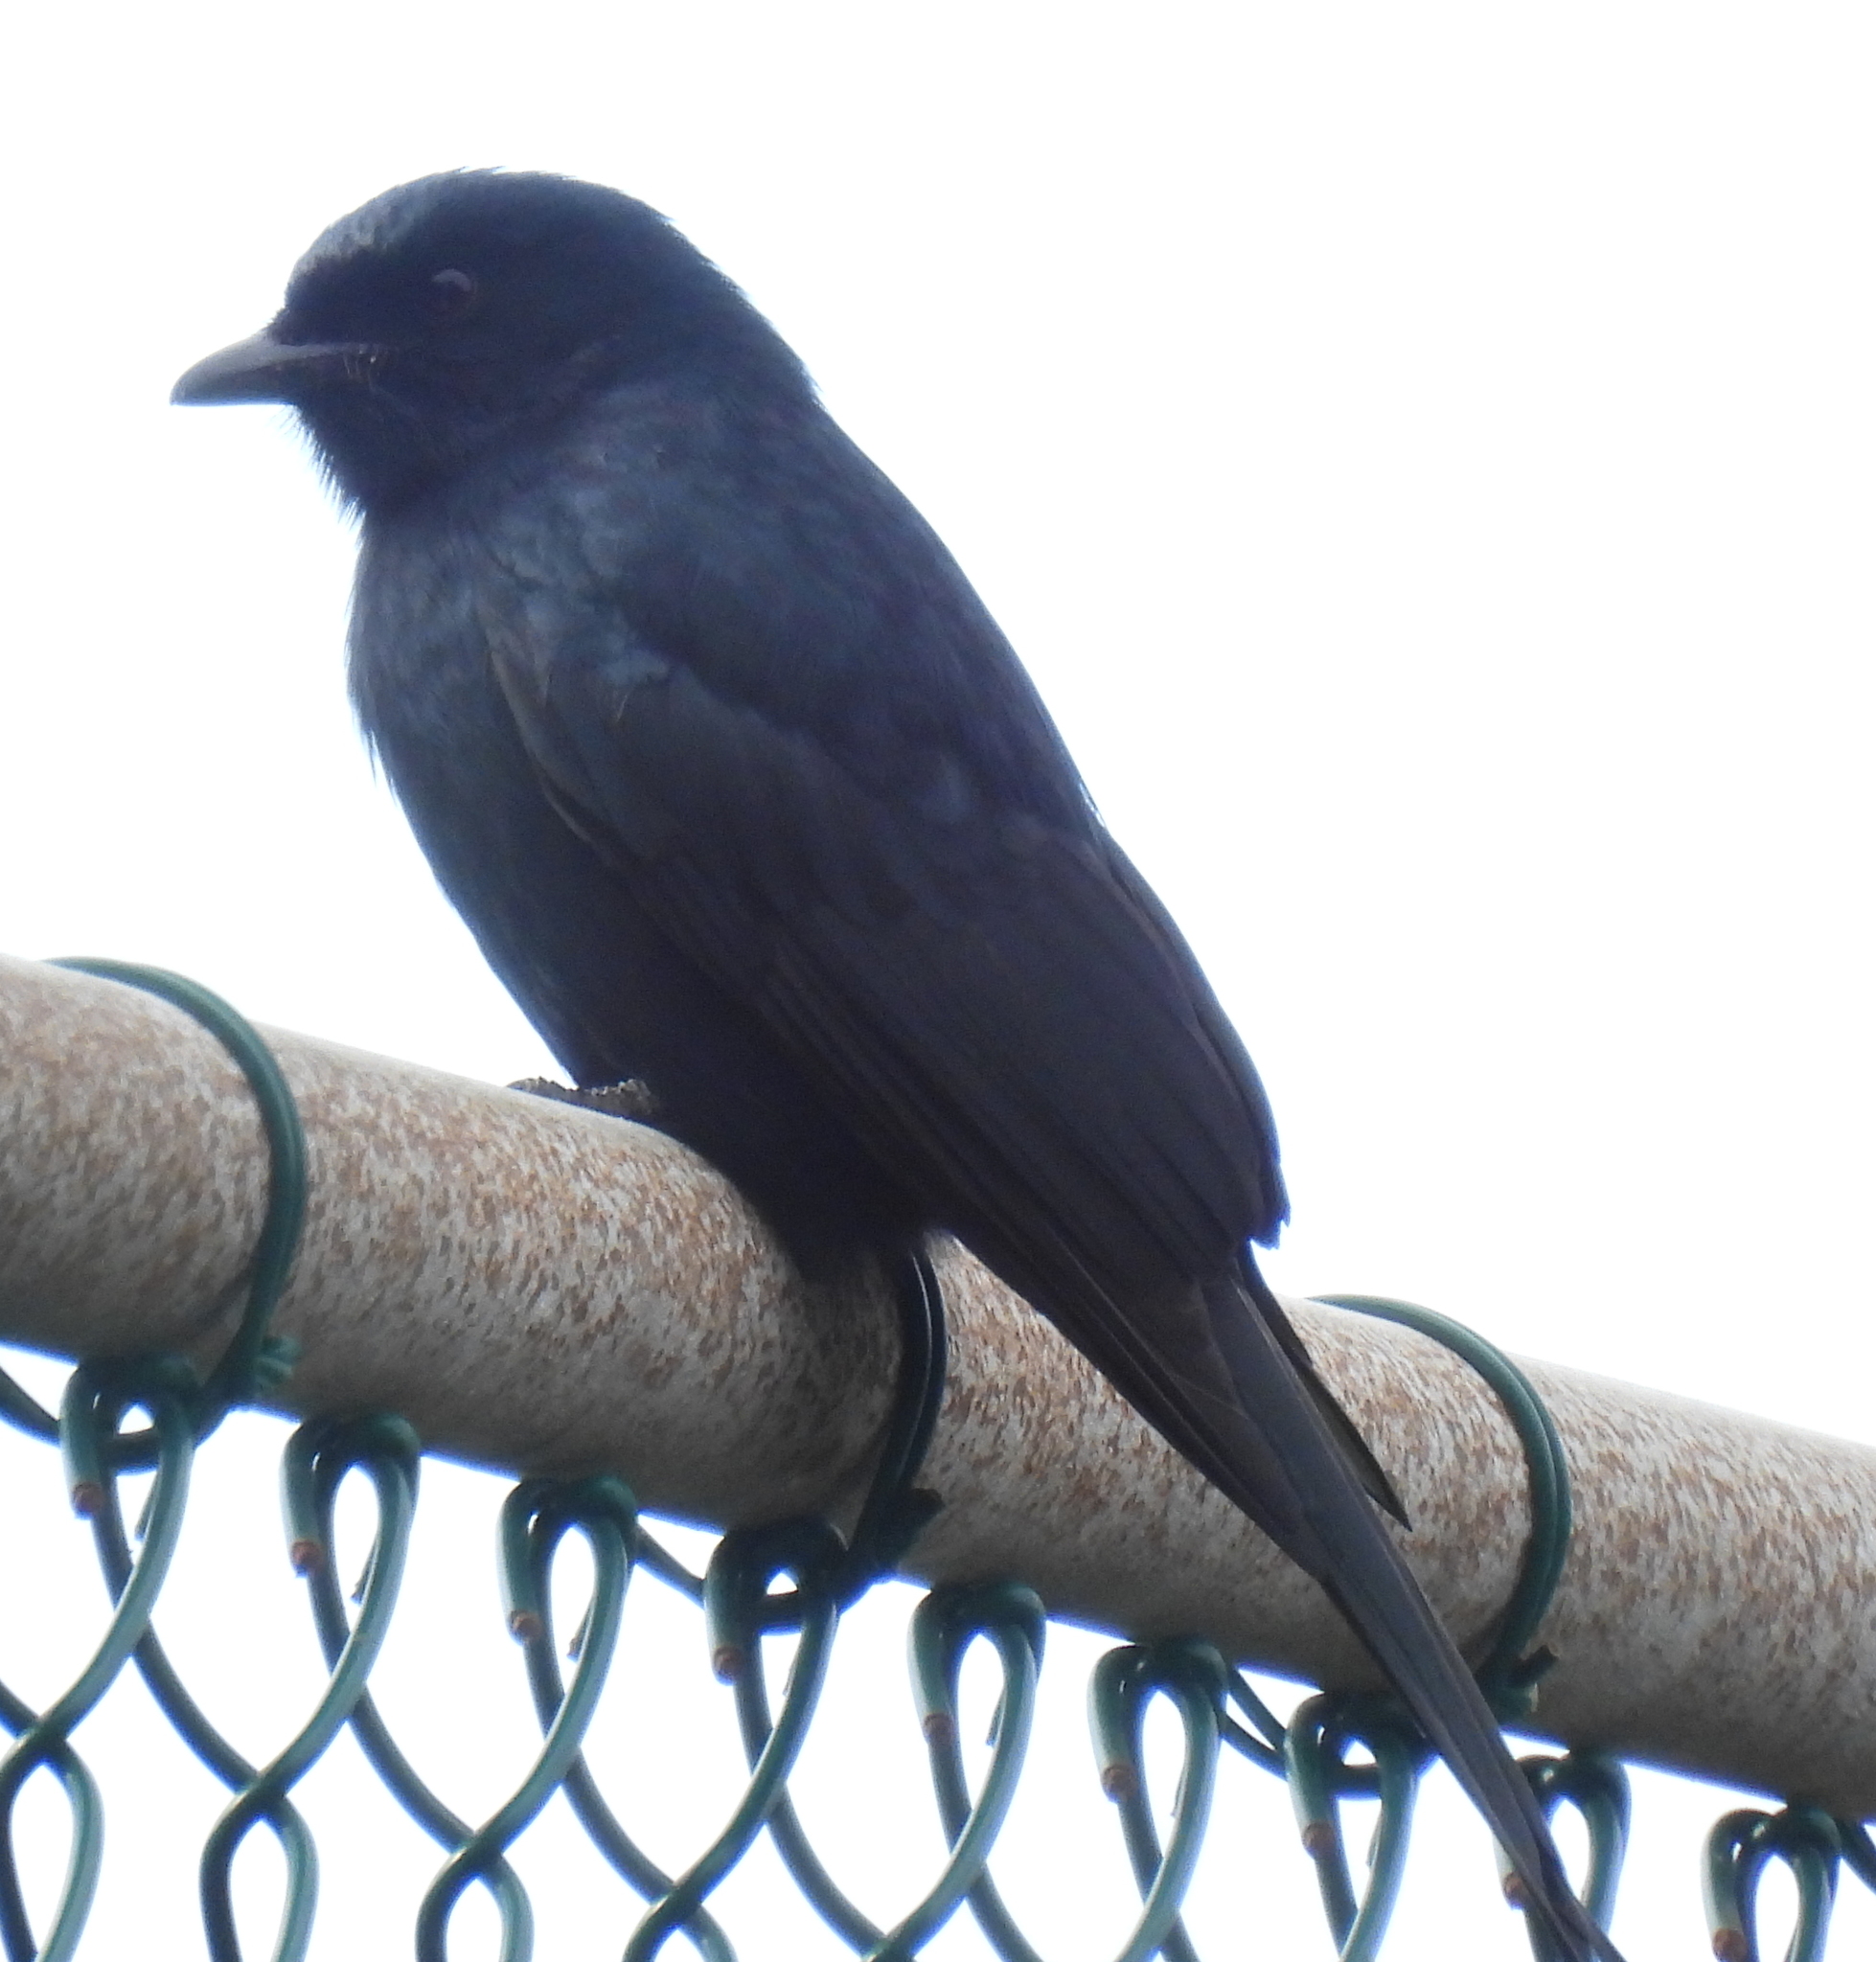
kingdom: Animalia
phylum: Chordata
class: Aves
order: Passeriformes
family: Dicruridae
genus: Dicrurus
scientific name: Dicrurus adsimilis
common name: Fork-tailed drongo
